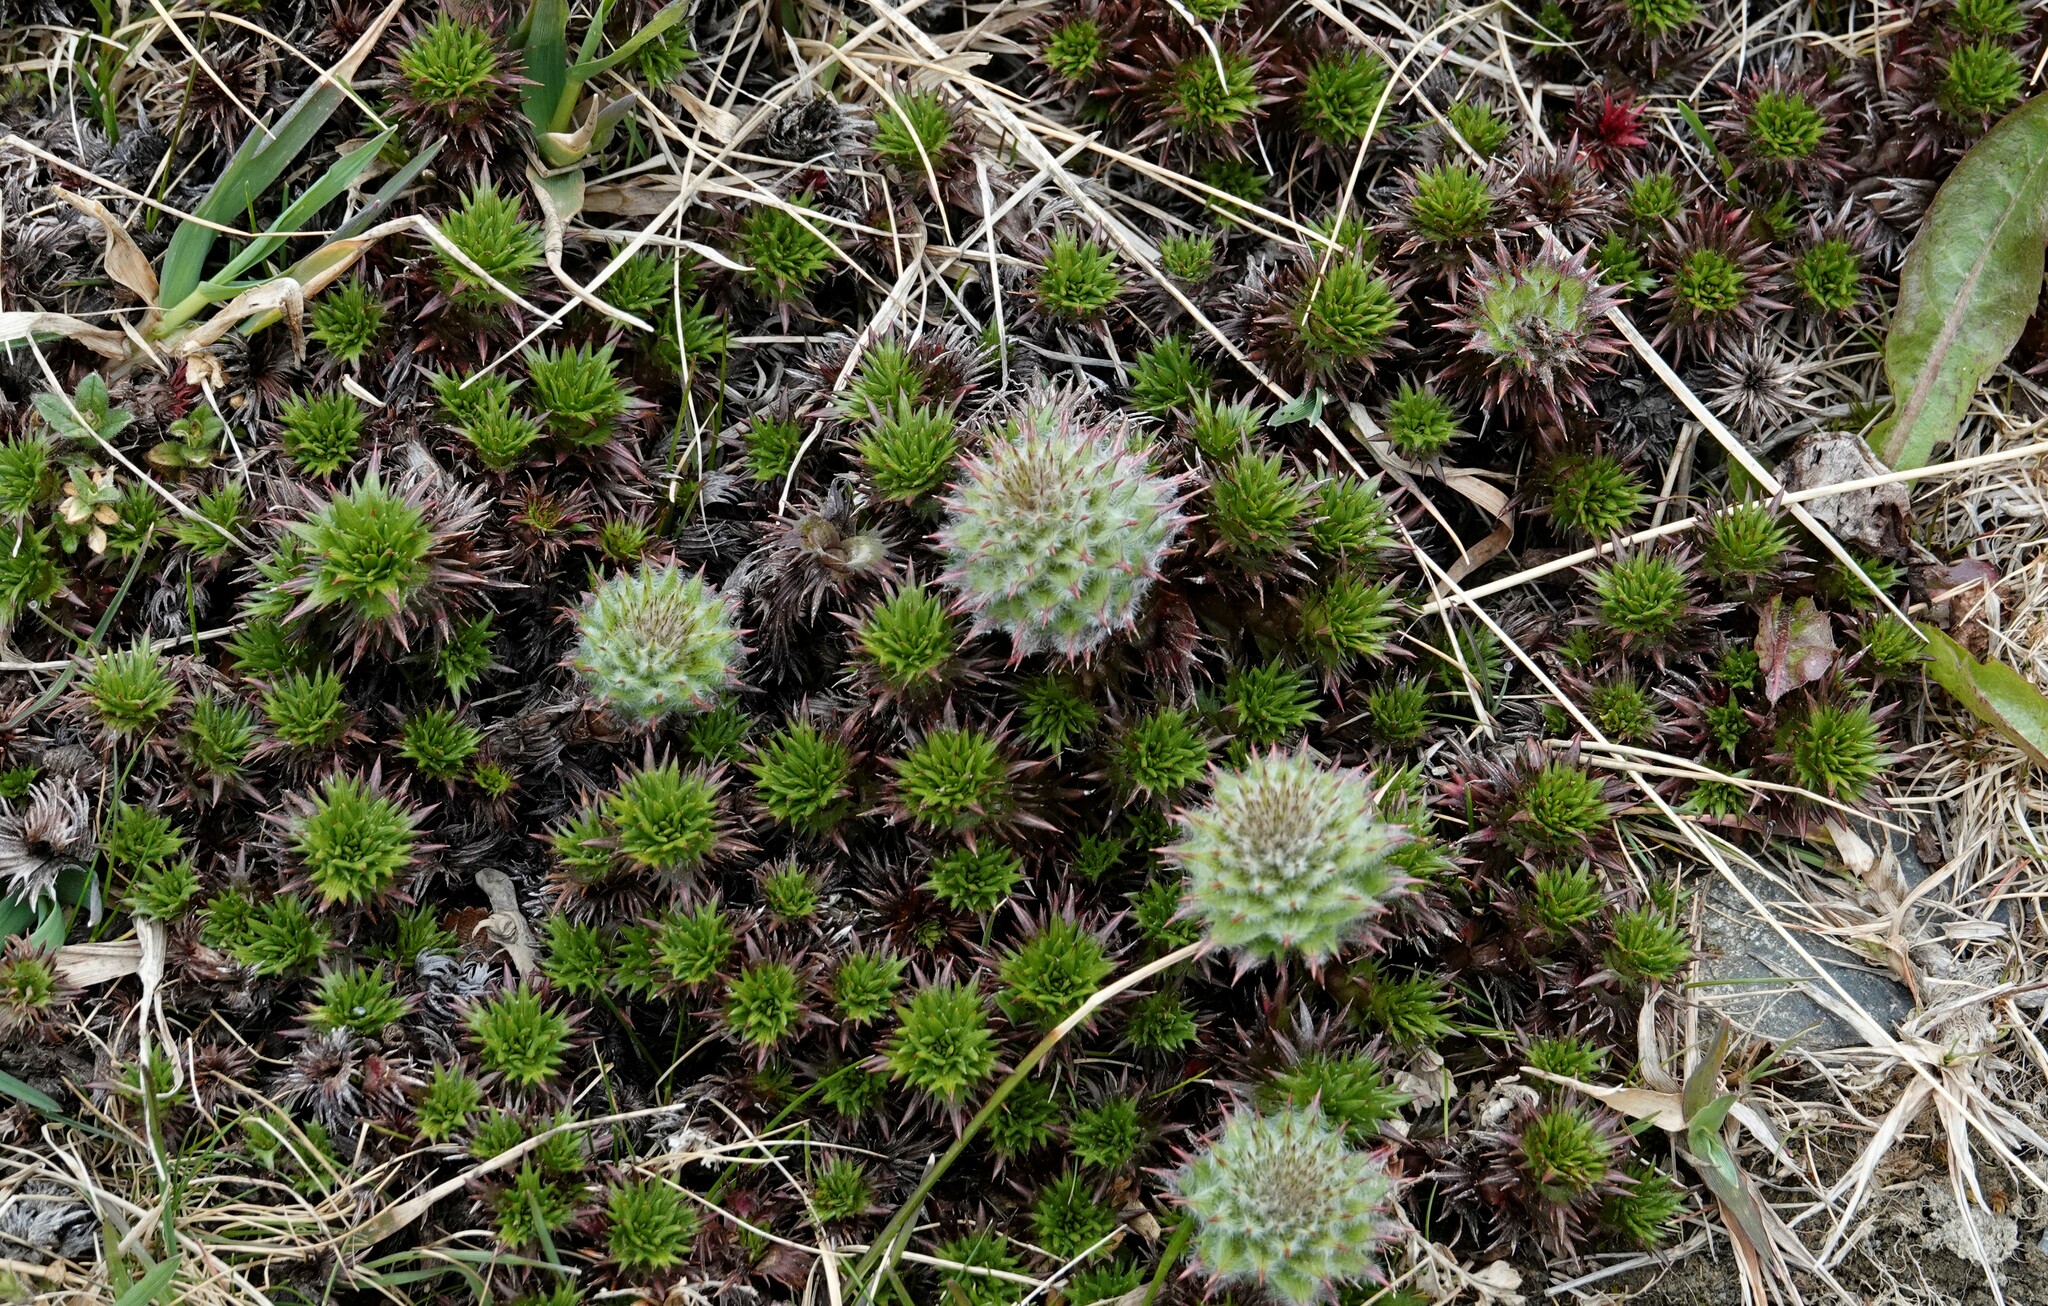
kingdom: Plantae
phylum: Tracheophyta
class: Magnoliopsida
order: Asterales
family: Asteraceae
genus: Nassauvia
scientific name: Nassauvia magellanica
